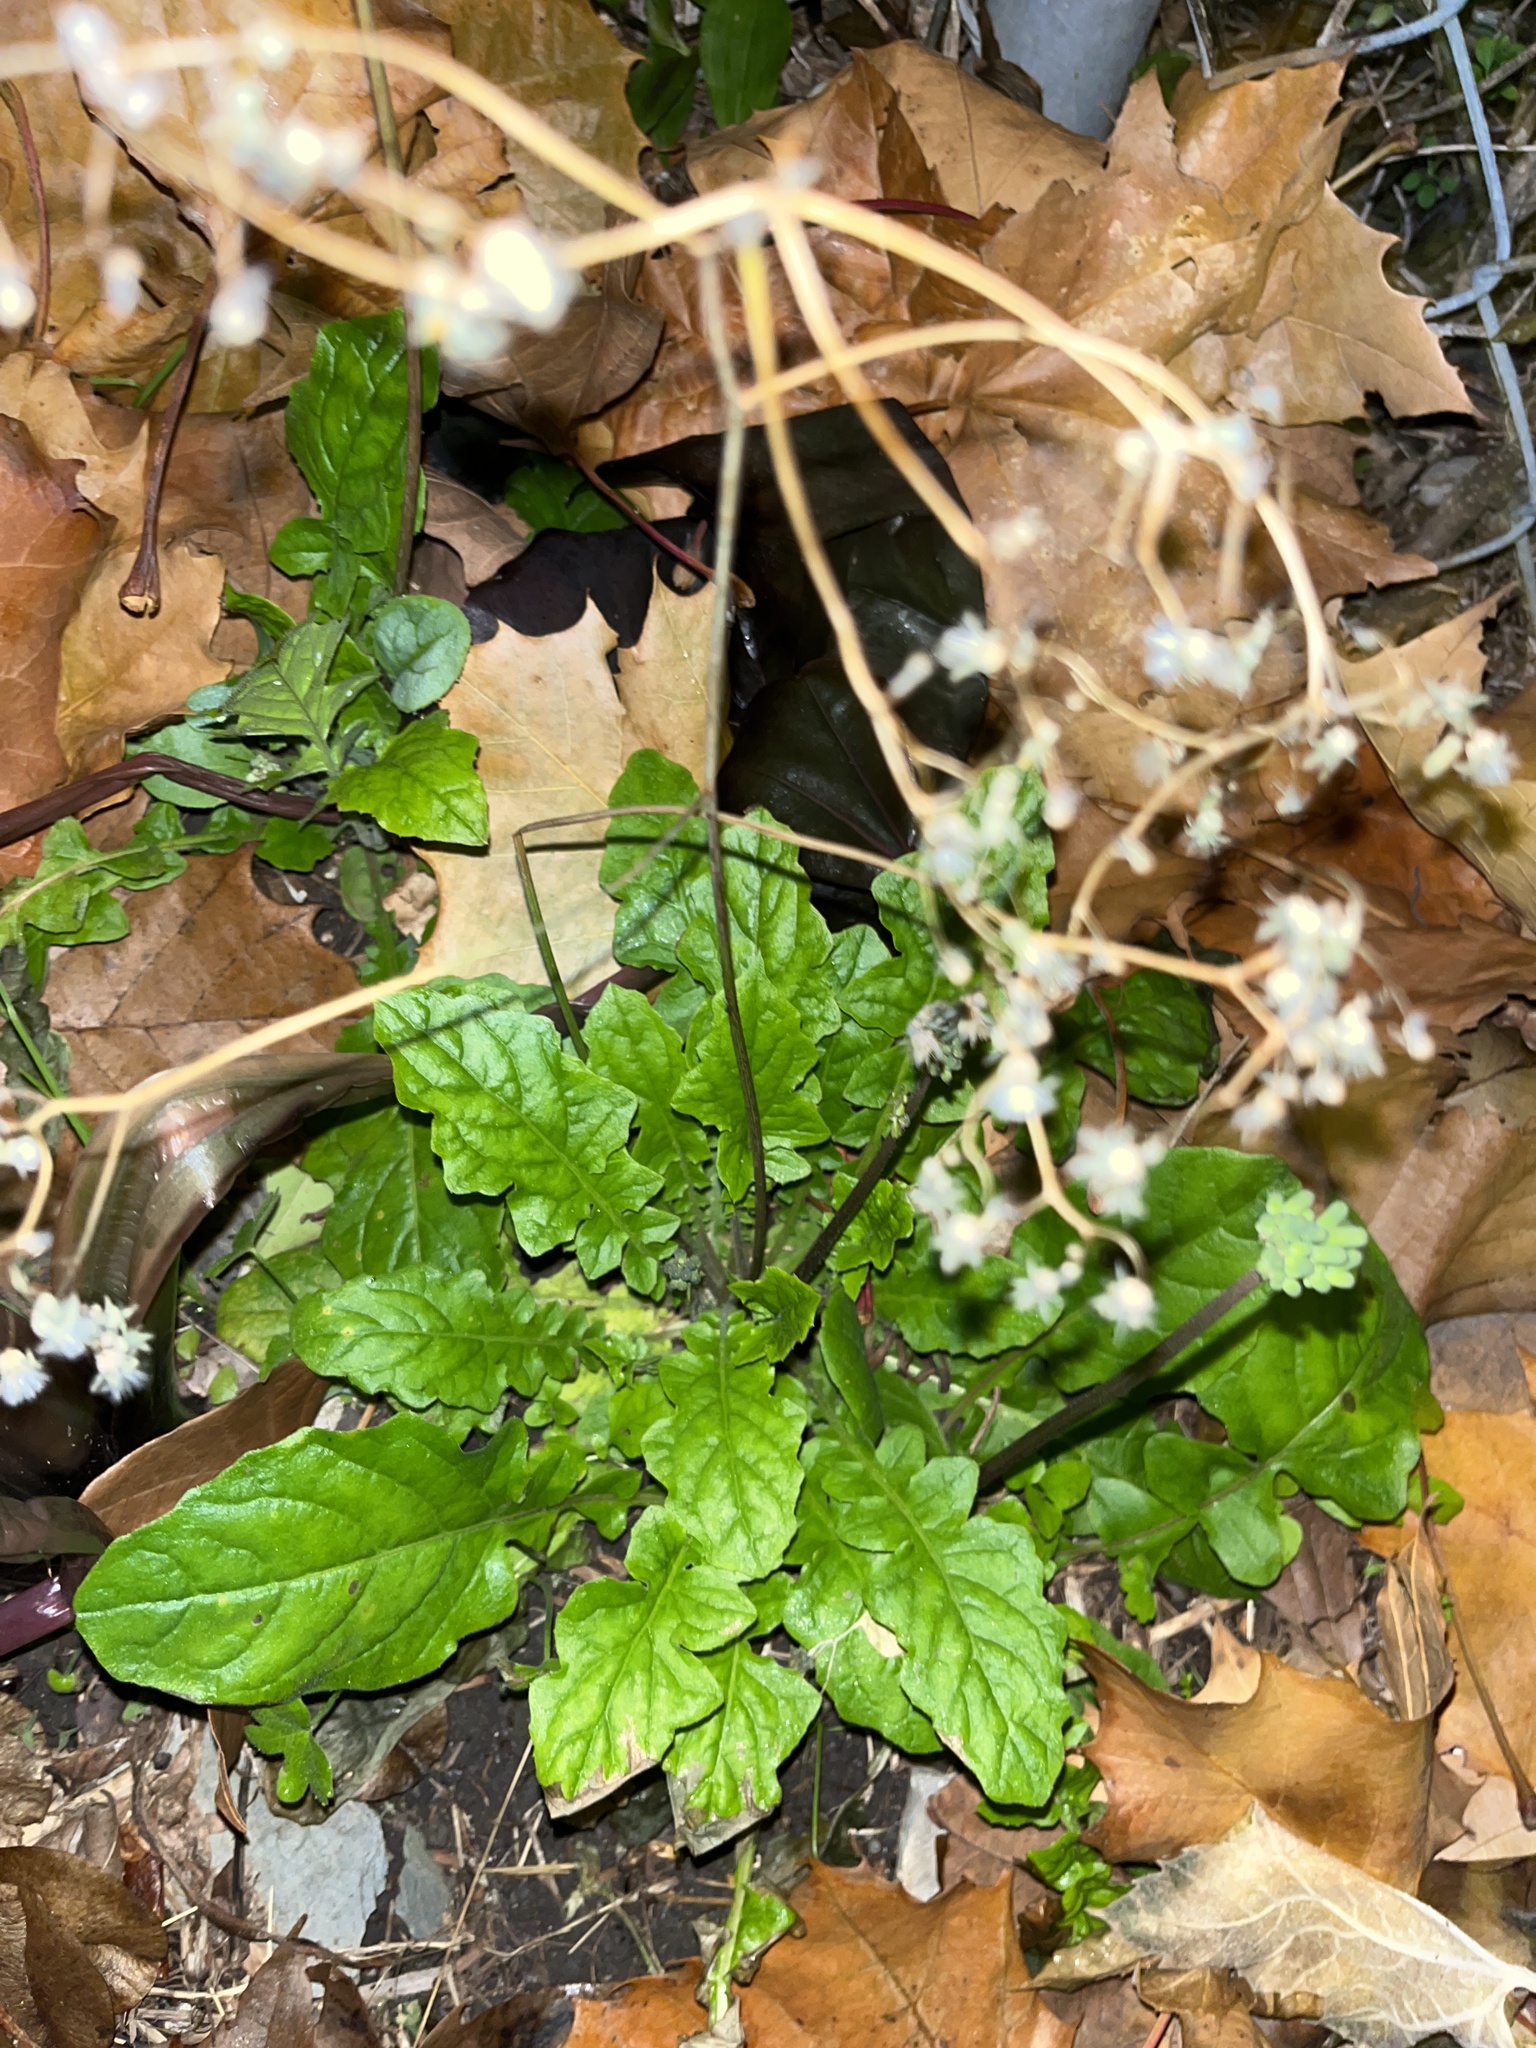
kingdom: Plantae
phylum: Tracheophyta
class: Magnoliopsida
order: Asterales
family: Asteraceae
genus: Youngia
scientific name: Youngia japonica
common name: Oriental false hawksbeard
